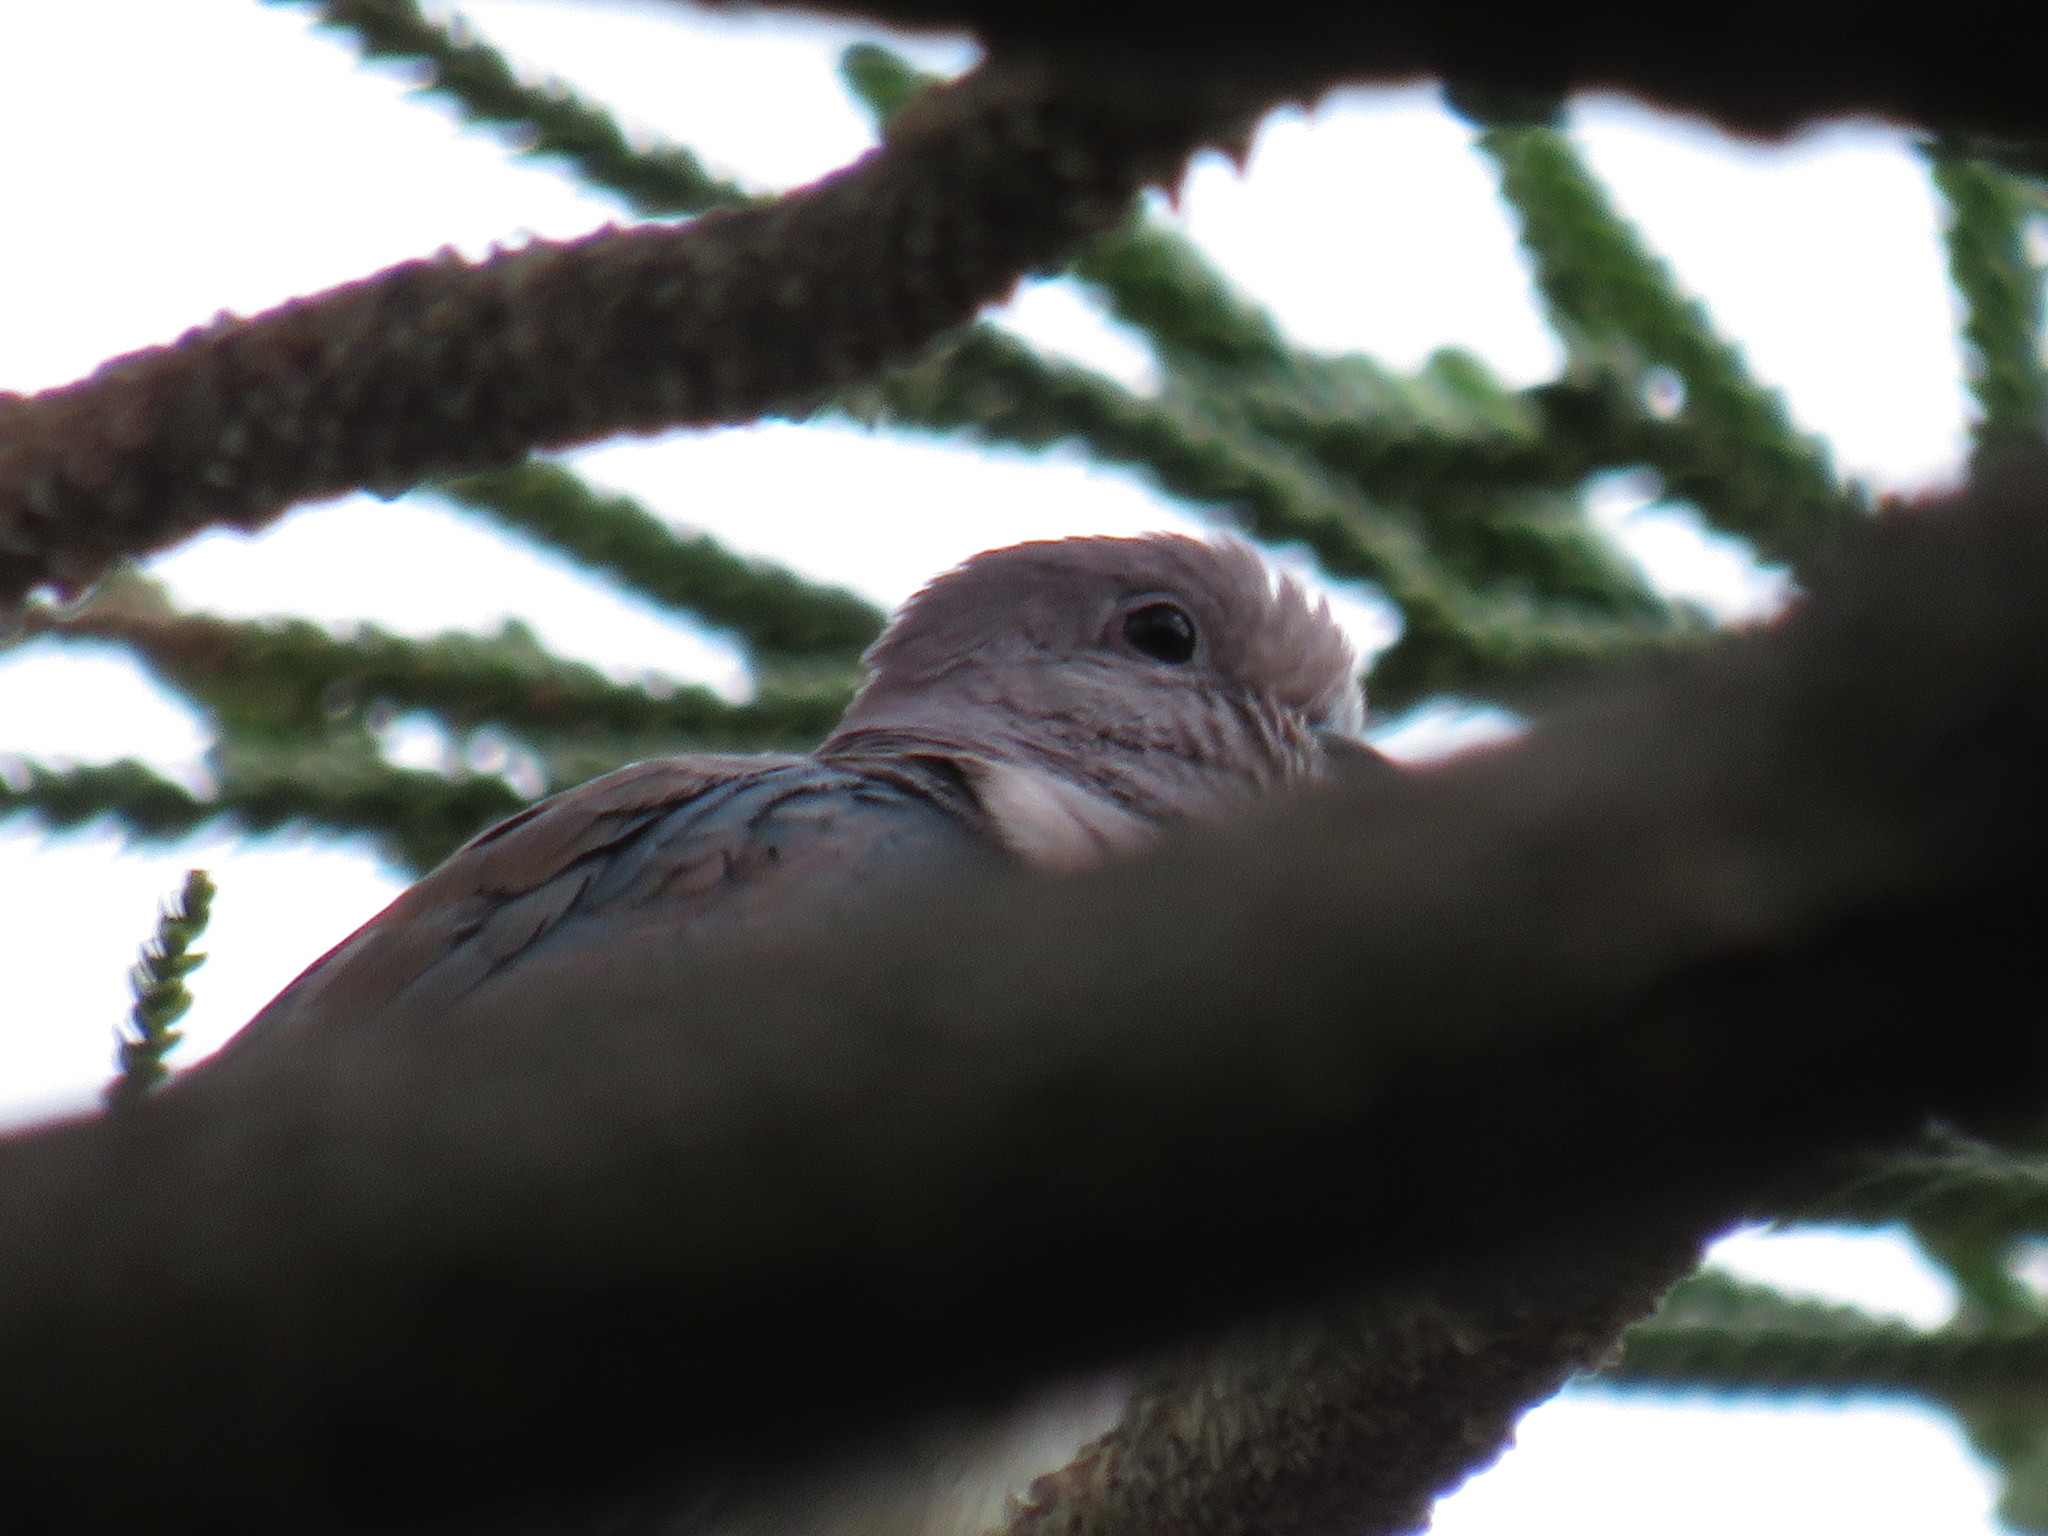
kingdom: Animalia
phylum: Chordata
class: Aves
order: Columbiformes
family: Columbidae
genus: Spilopelia
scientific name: Spilopelia senegalensis
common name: Laughing dove
